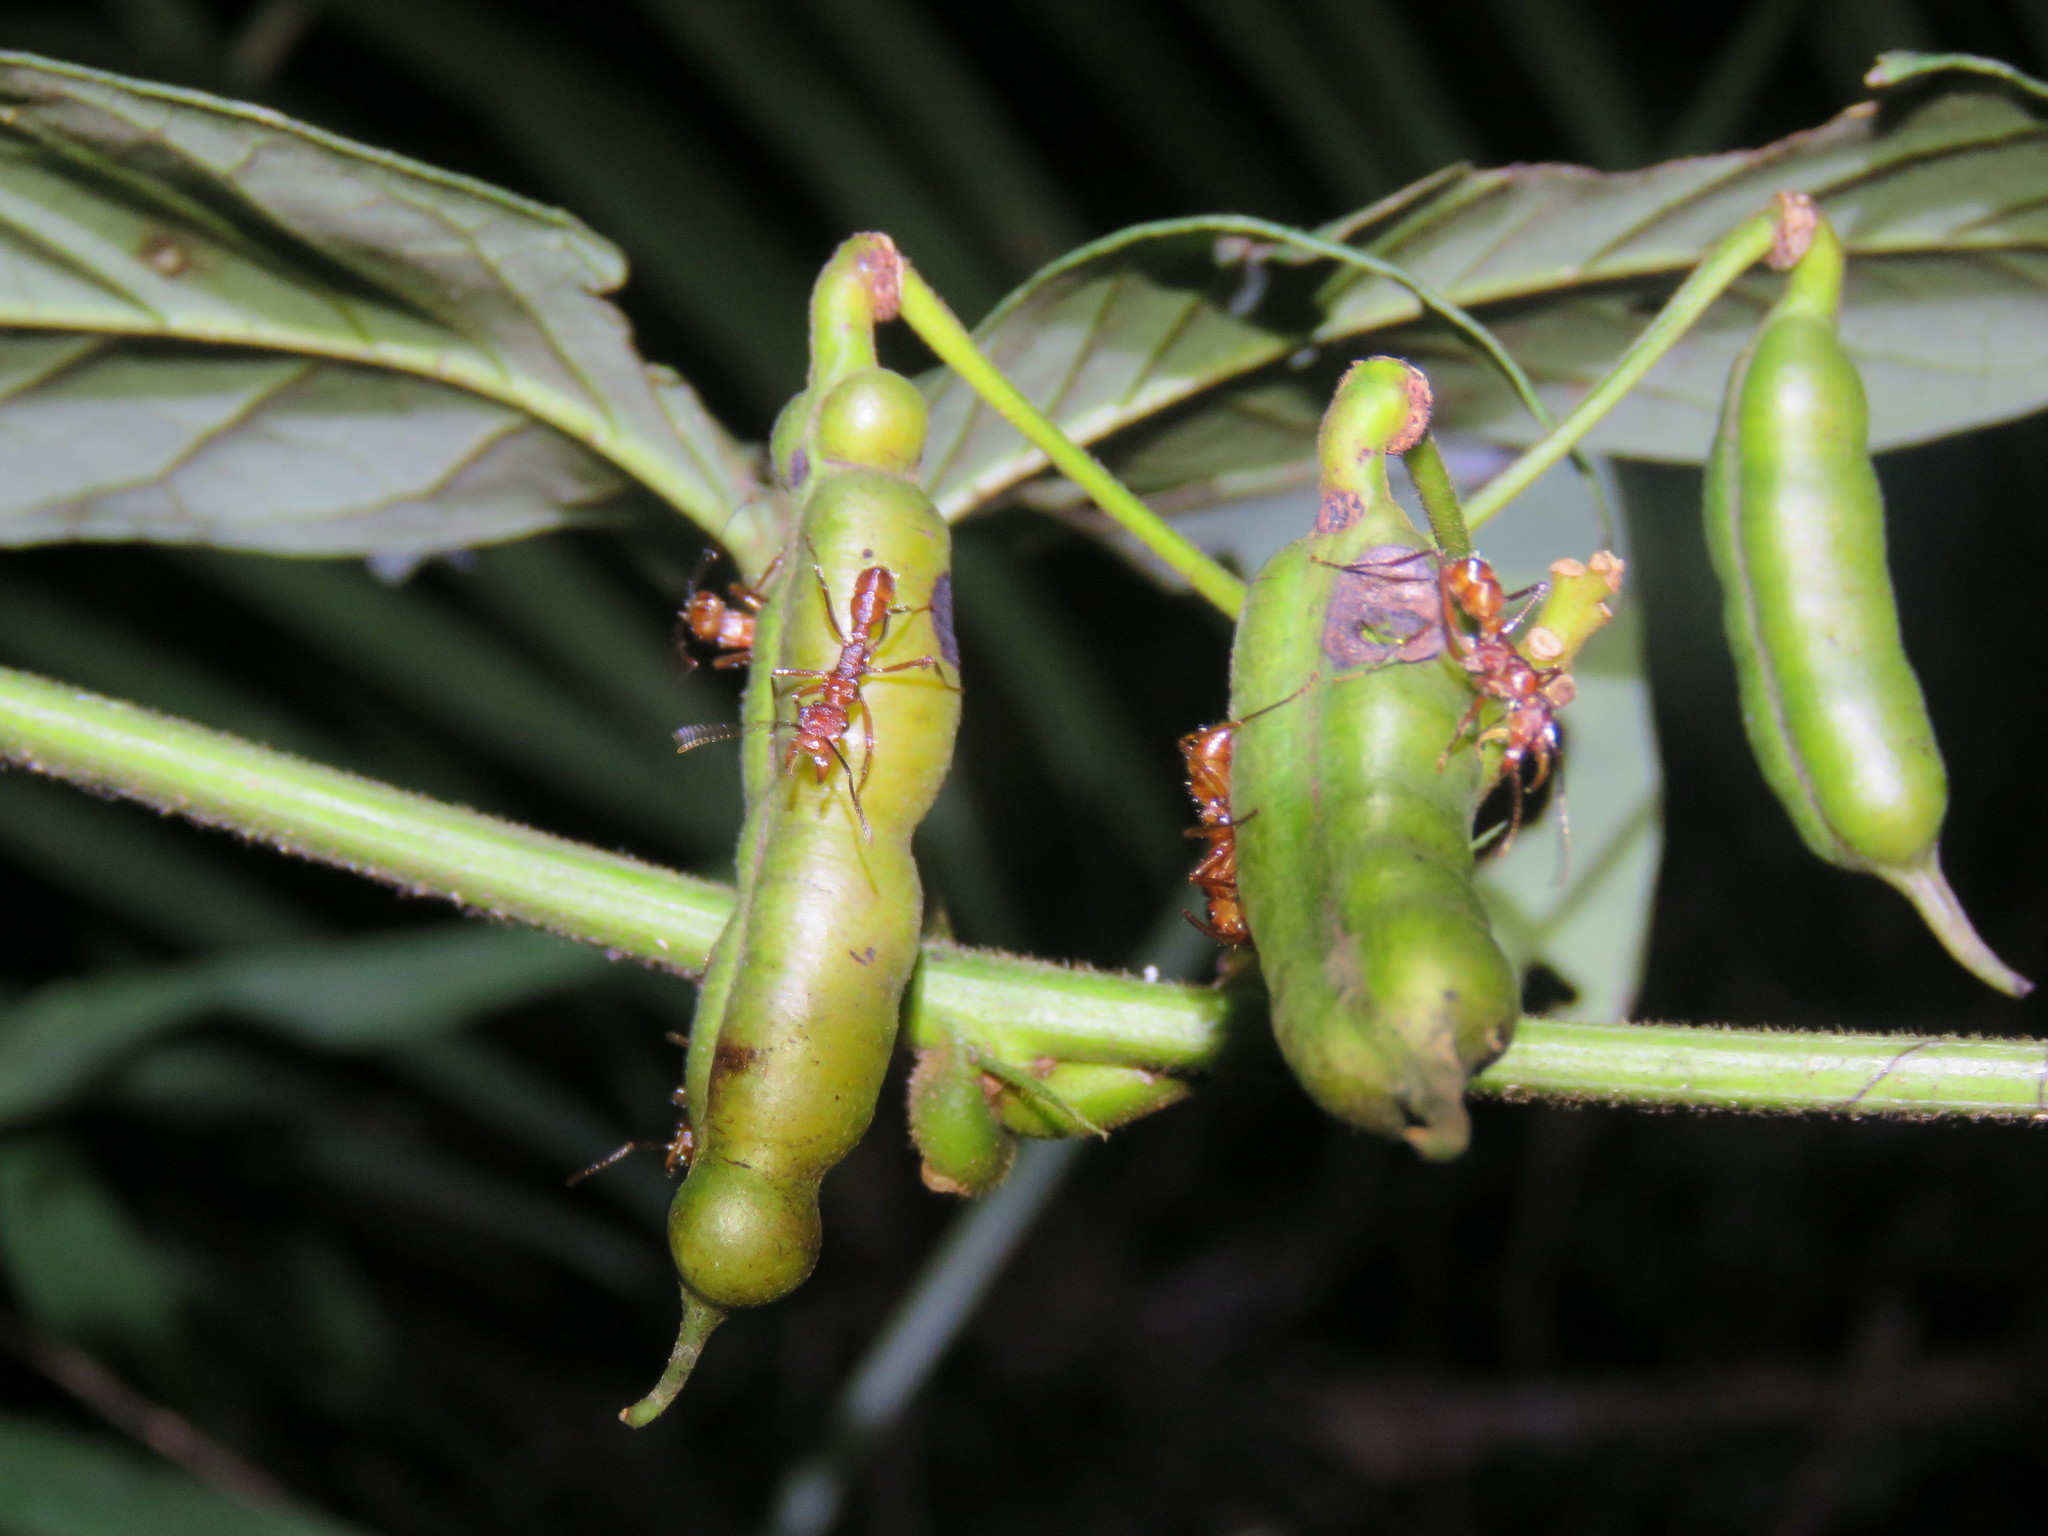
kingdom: Animalia
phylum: Arthropoda
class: Insecta
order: Hymenoptera
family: Formicidae
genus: Ectatomma
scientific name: Ectatomma tuberculatum
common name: Ant
